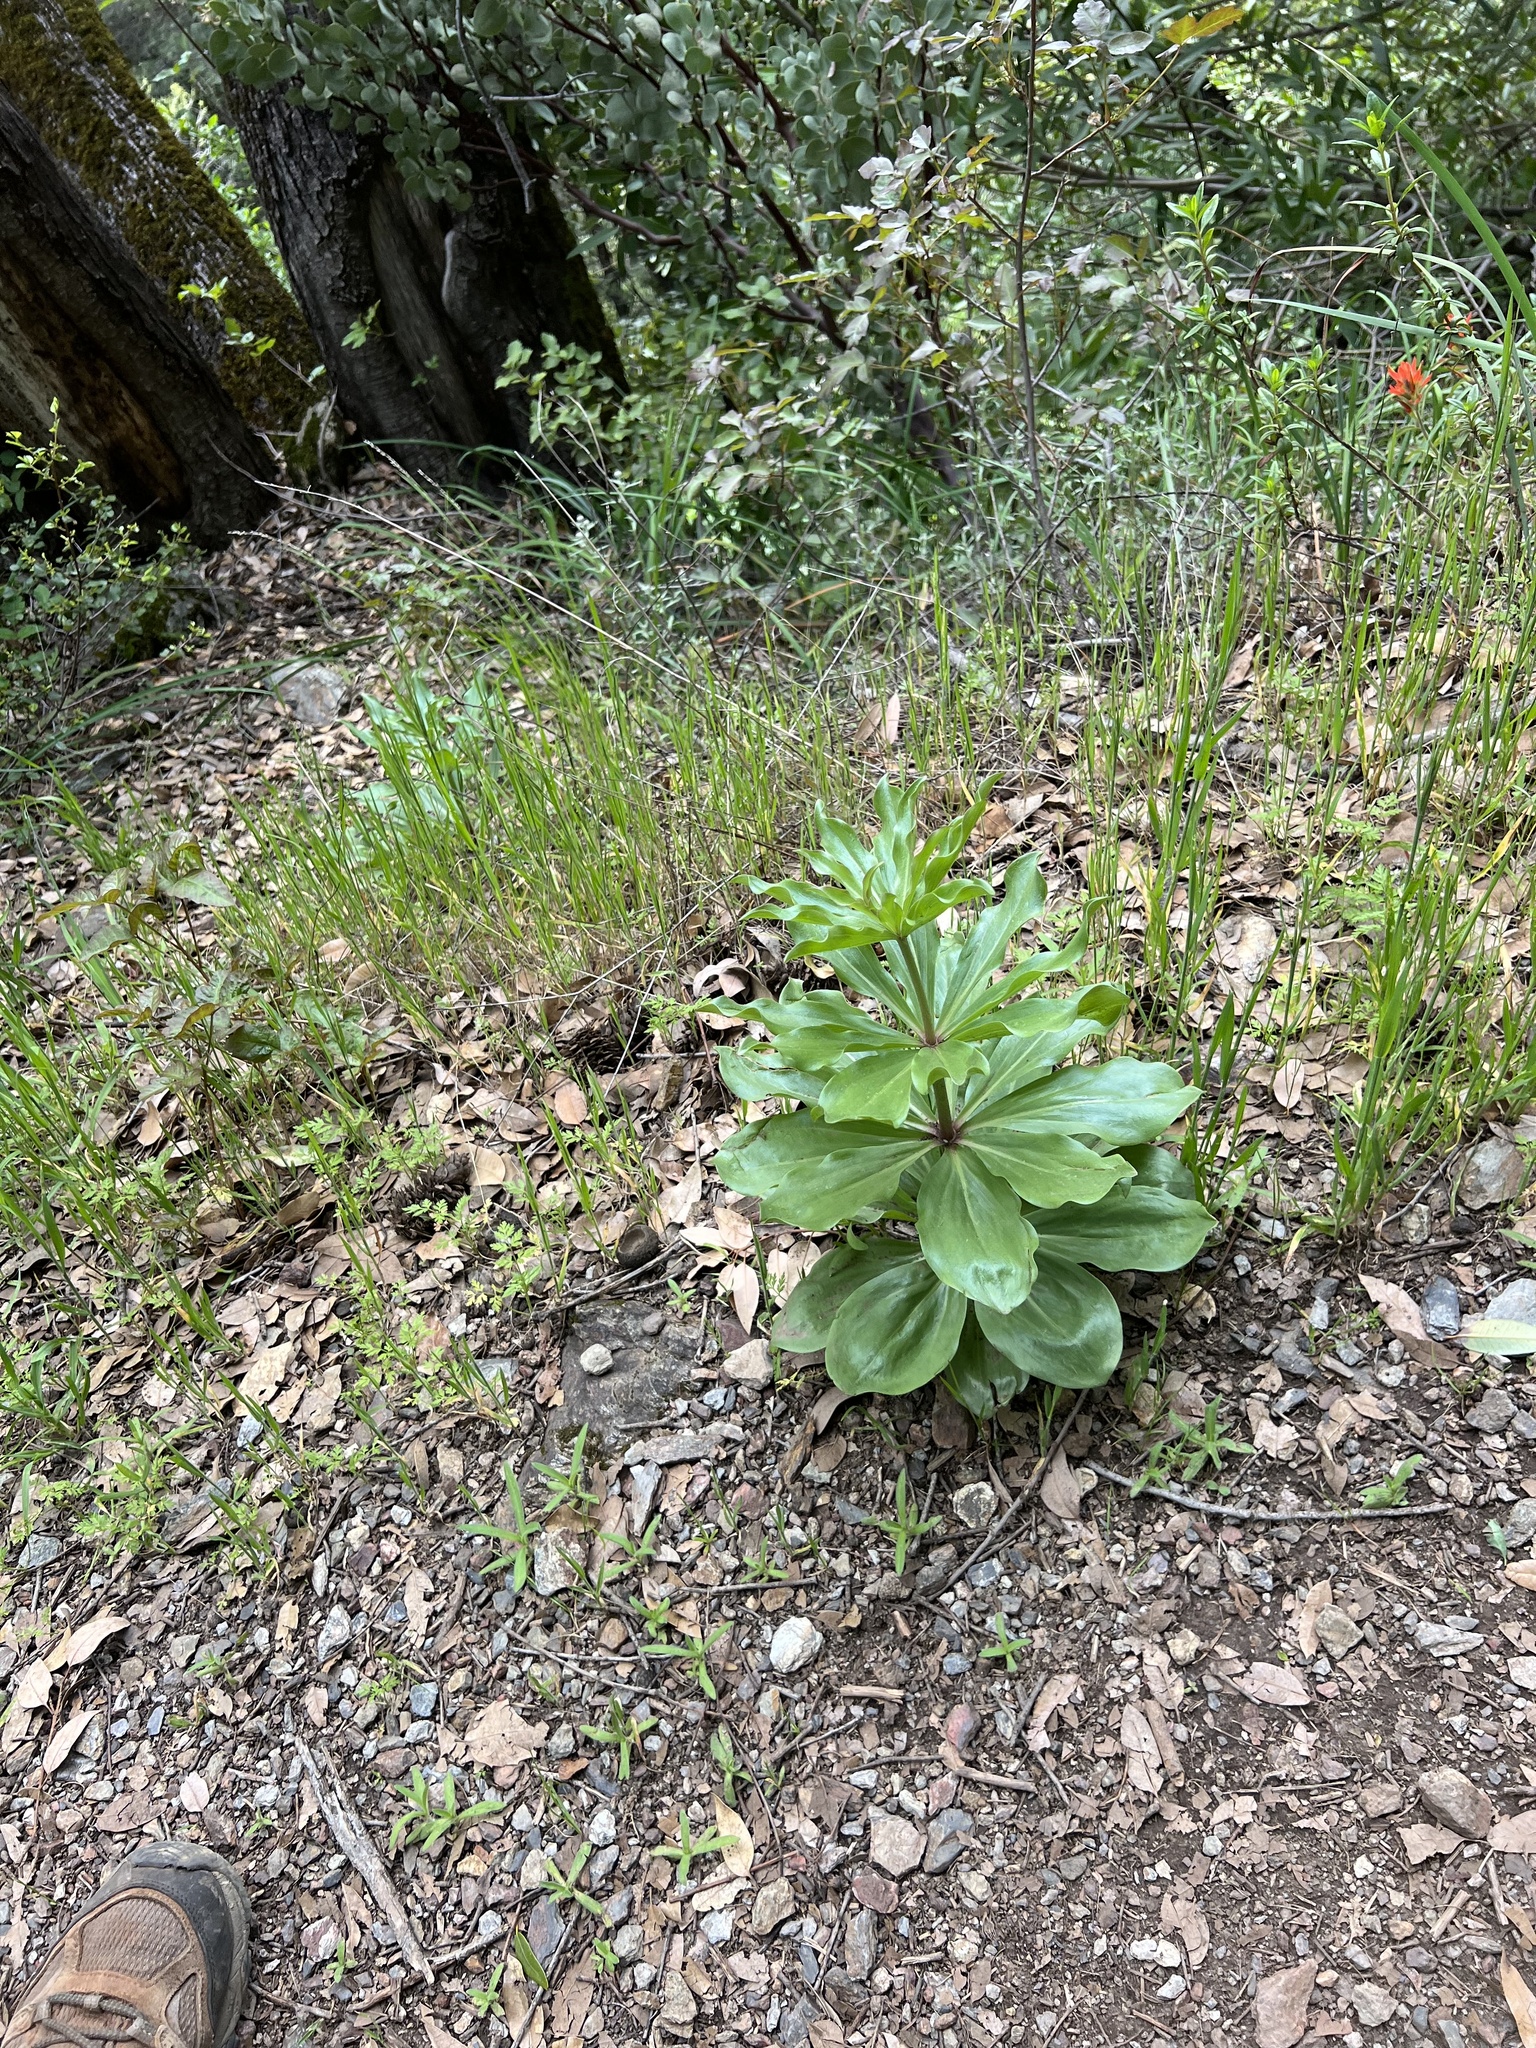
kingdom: Plantae
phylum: Tracheophyta
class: Liliopsida
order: Liliales
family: Liliaceae
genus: Lilium
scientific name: Lilium humboldtii
